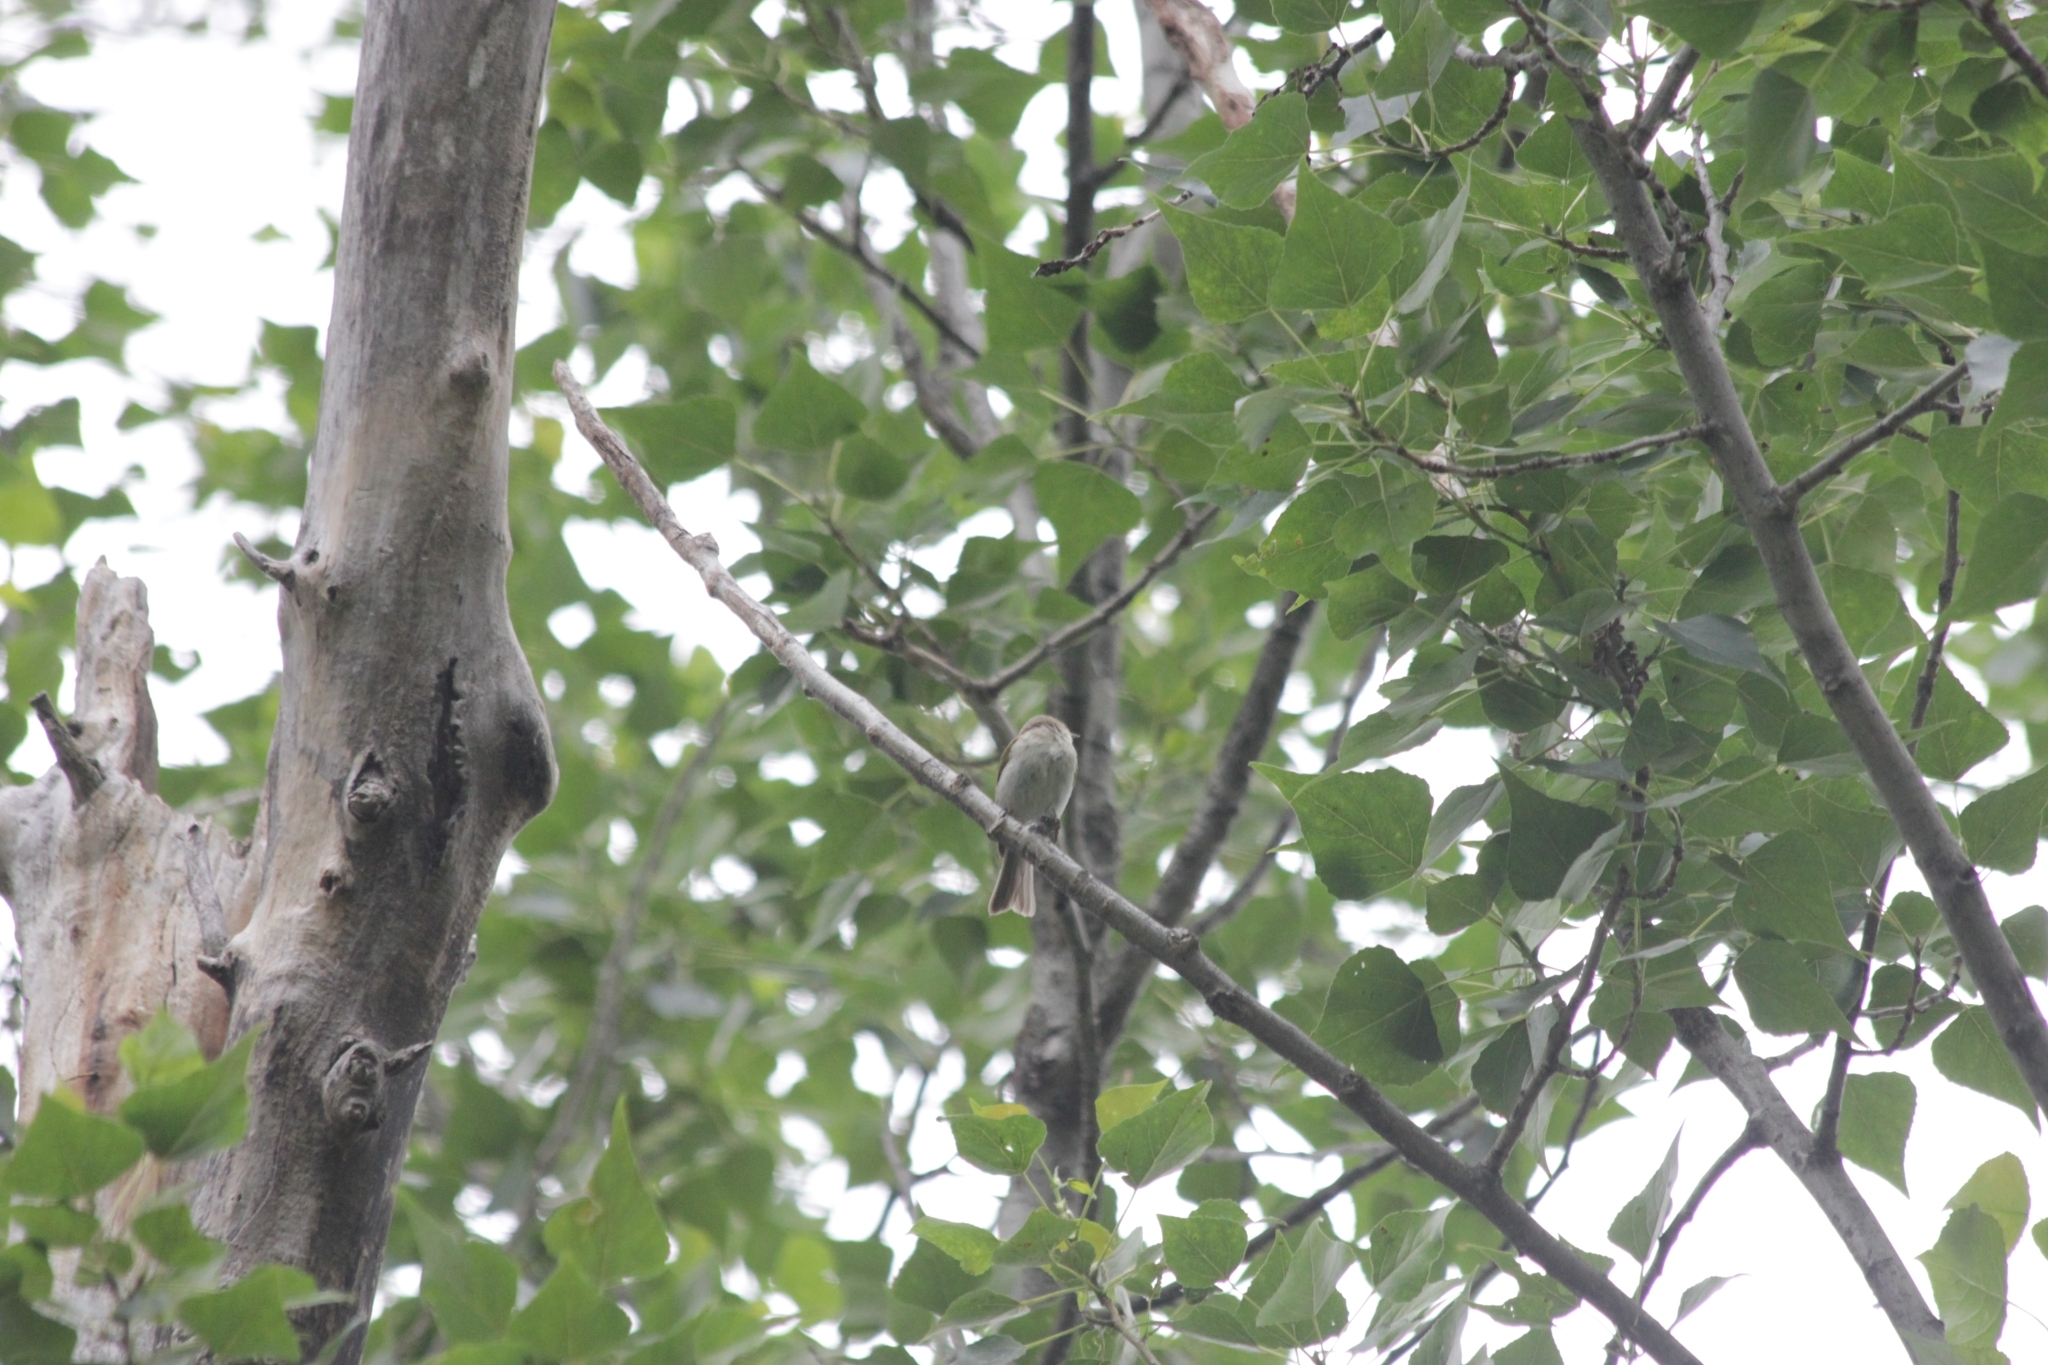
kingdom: Animalia
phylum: Chordata
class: Aves
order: Passeriformes
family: Phylloscopidae
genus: Phylloscopus
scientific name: Phylloscopus collybita
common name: Common chiffchaff
